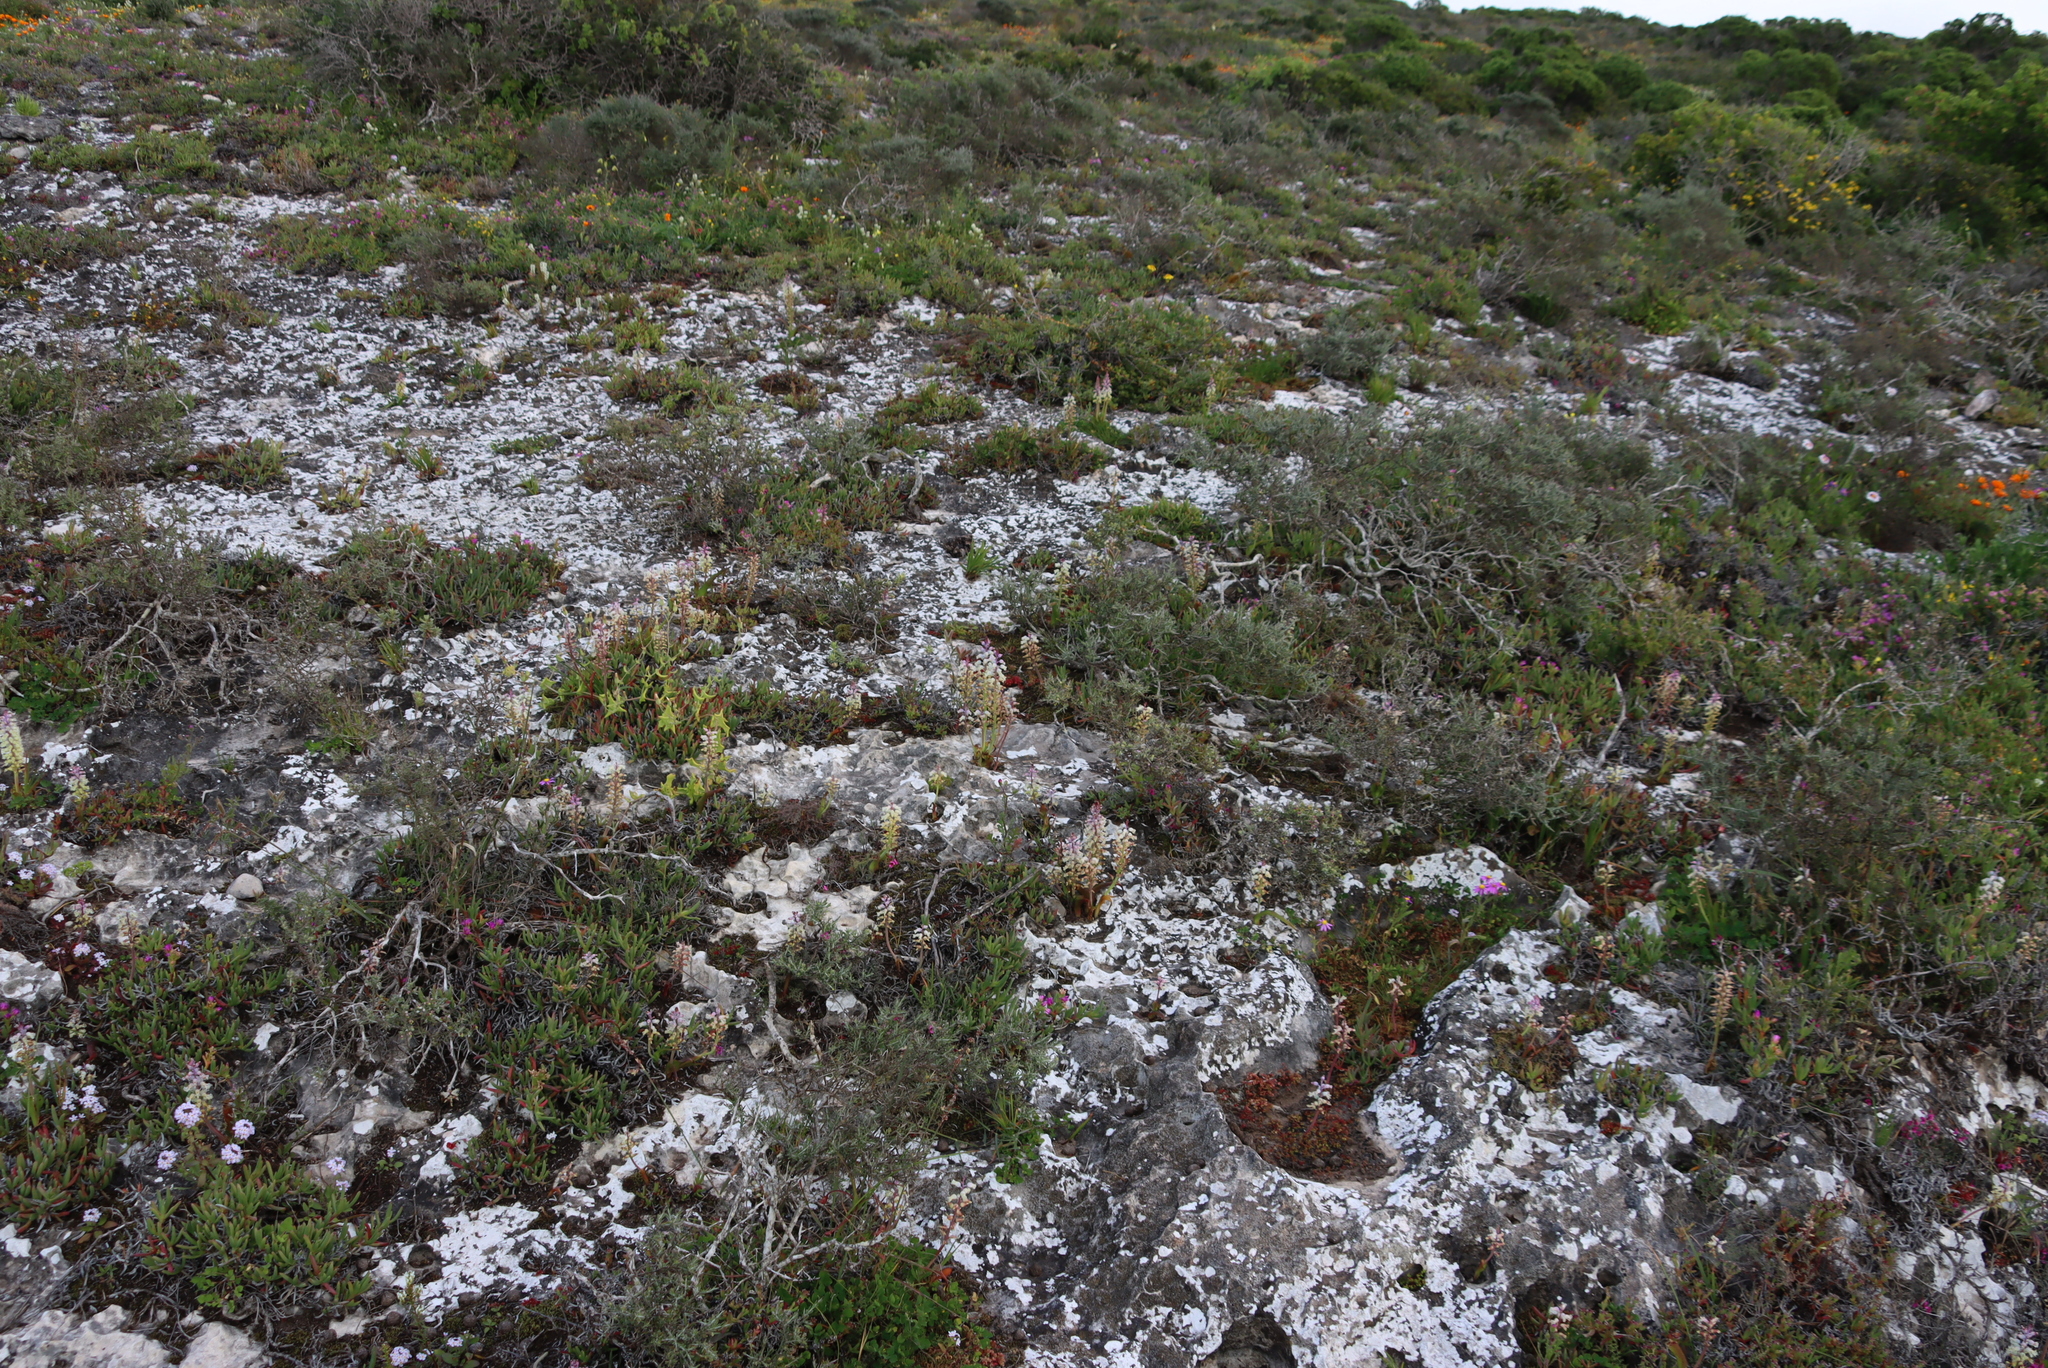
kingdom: Plantae
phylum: Tracheophyta
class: Liliopsida
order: Asparagales
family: Asparagaceae
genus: Lachenalia
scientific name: Lachenalia pallida
